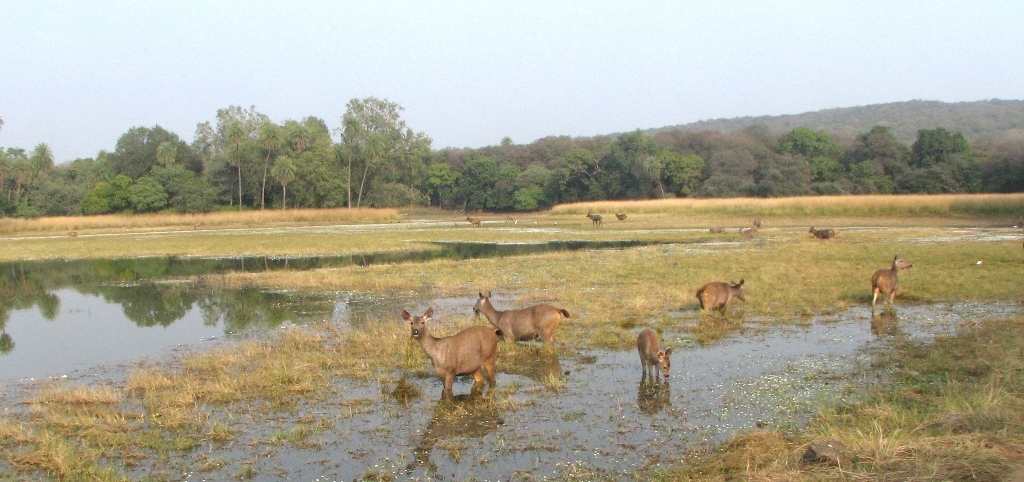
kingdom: Animalia
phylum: Chordata
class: Mammalia
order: Artiodactyla
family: Cervidae
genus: Rusa
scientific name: Rusa unicolor
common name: Sambar
